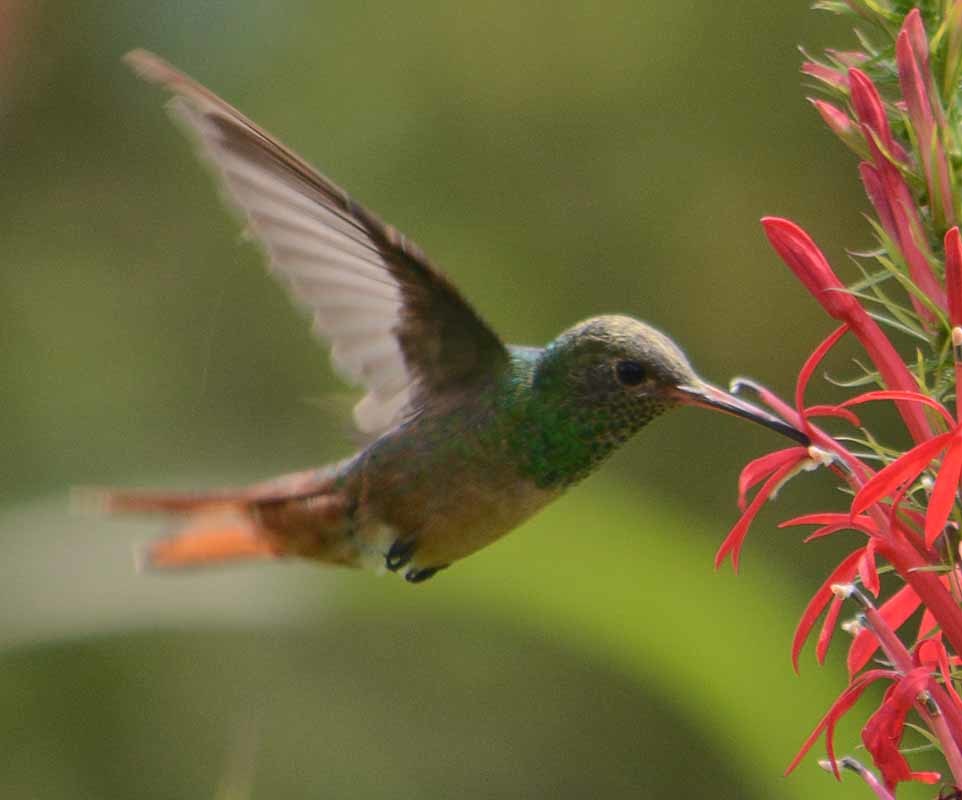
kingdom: Animalia
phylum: Chordata
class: Aves
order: Apodiformes
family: Trochilidae
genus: Amazilia
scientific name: Amazilia yucatanensis
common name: Buff-bellied hummingbird
